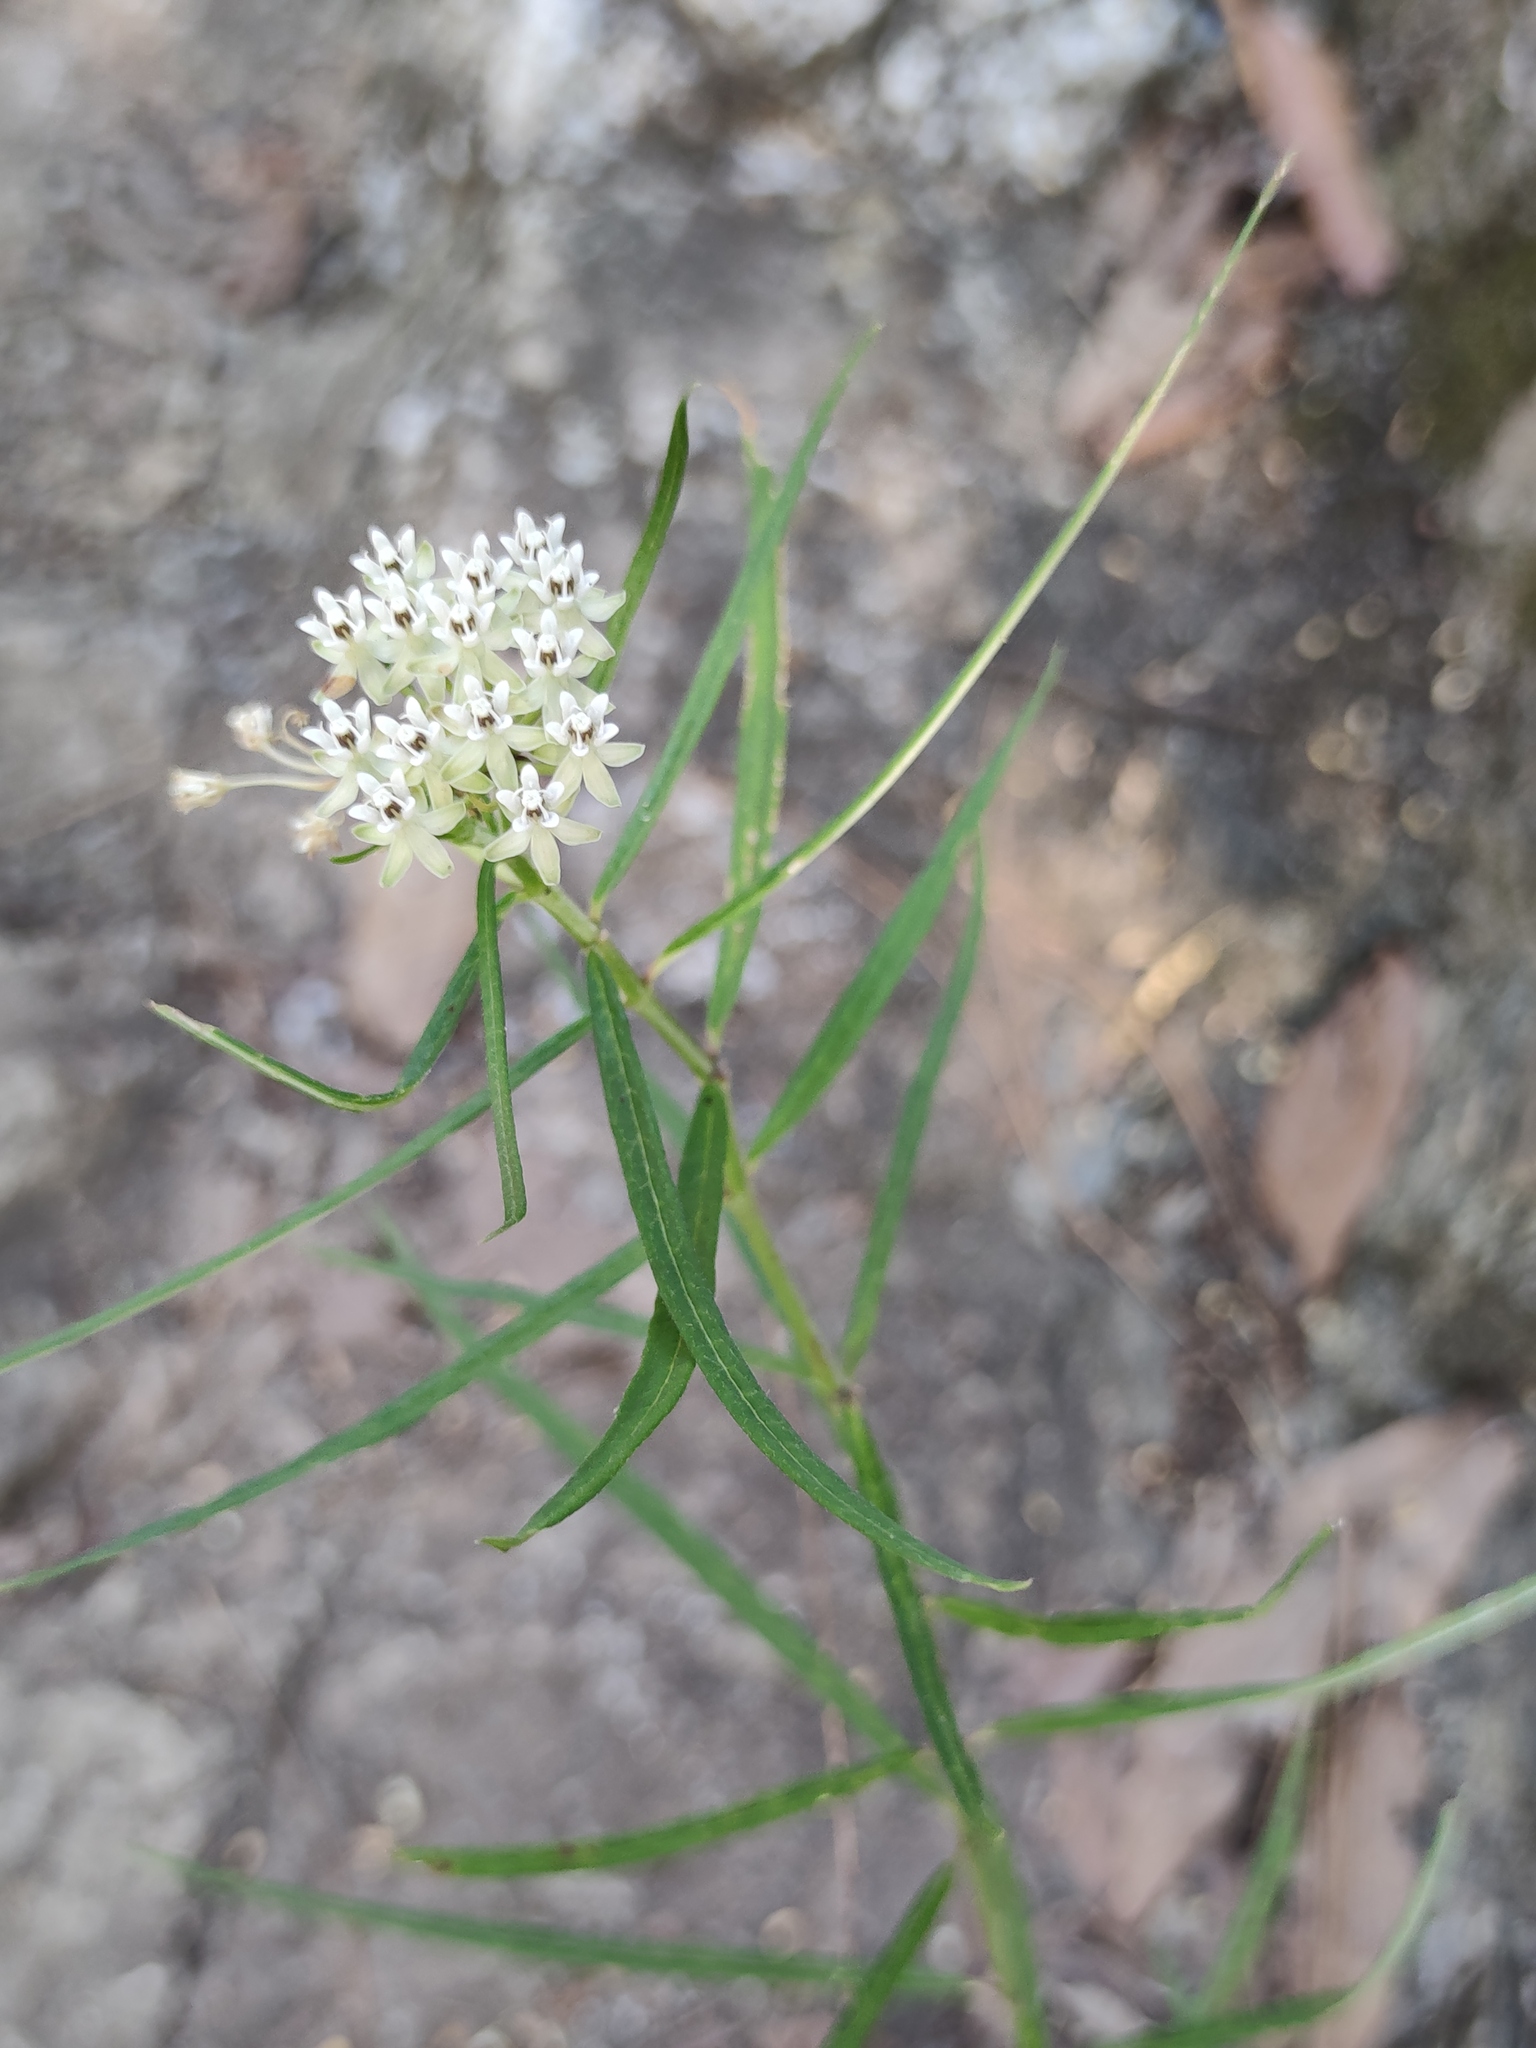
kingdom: Plantae
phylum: Tracheophyta
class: Magnoliopsida
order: Gentianales
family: Apocynaceae
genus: Asclepias
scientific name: Asclepias angustifolia
